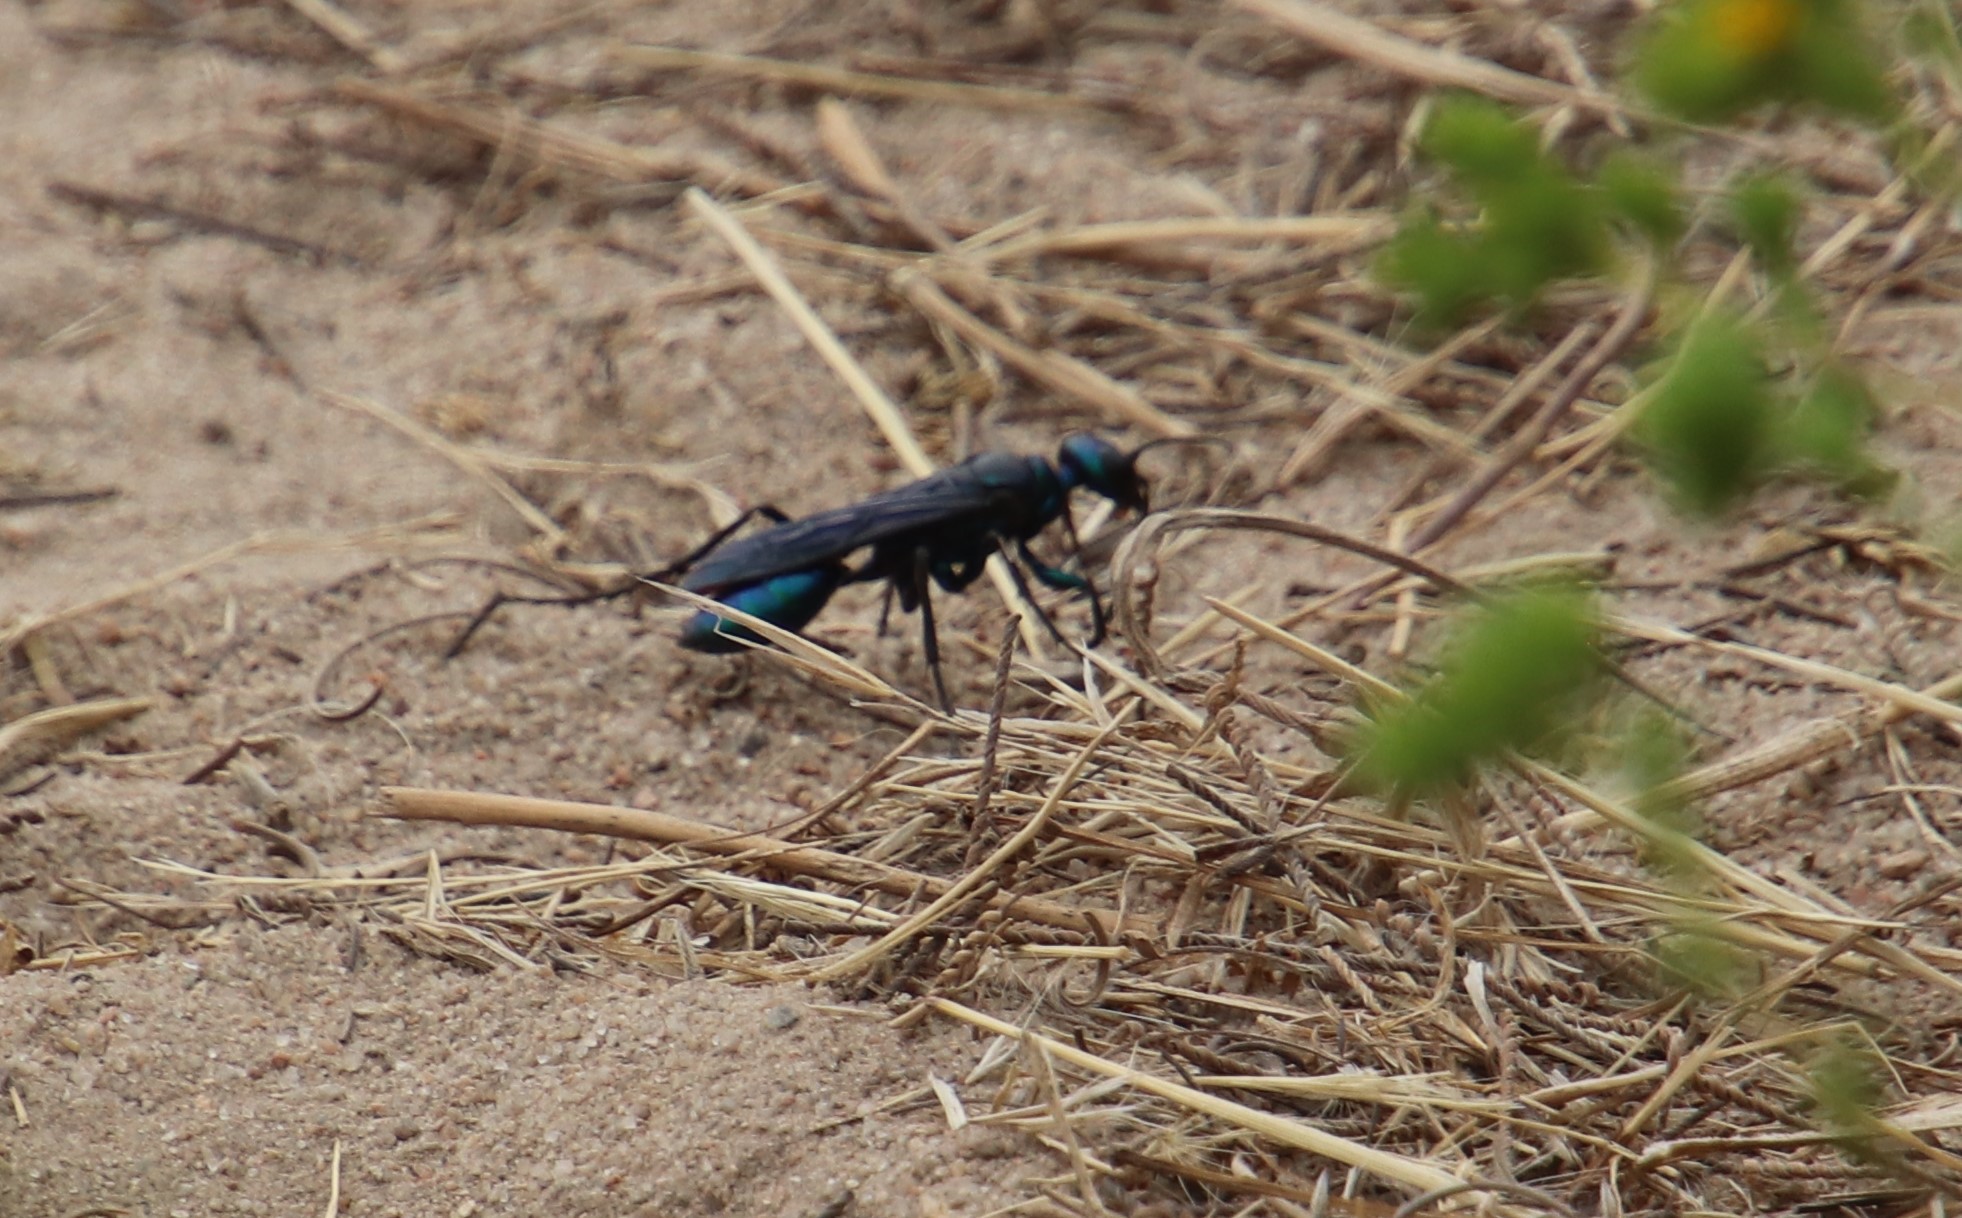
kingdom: Animalia
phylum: Arthropoda
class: Insecta
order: Hymenoptera
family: Sphecidae
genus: Chlorion
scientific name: Chlorion aerarium
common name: Steel-blue cricket hunter
